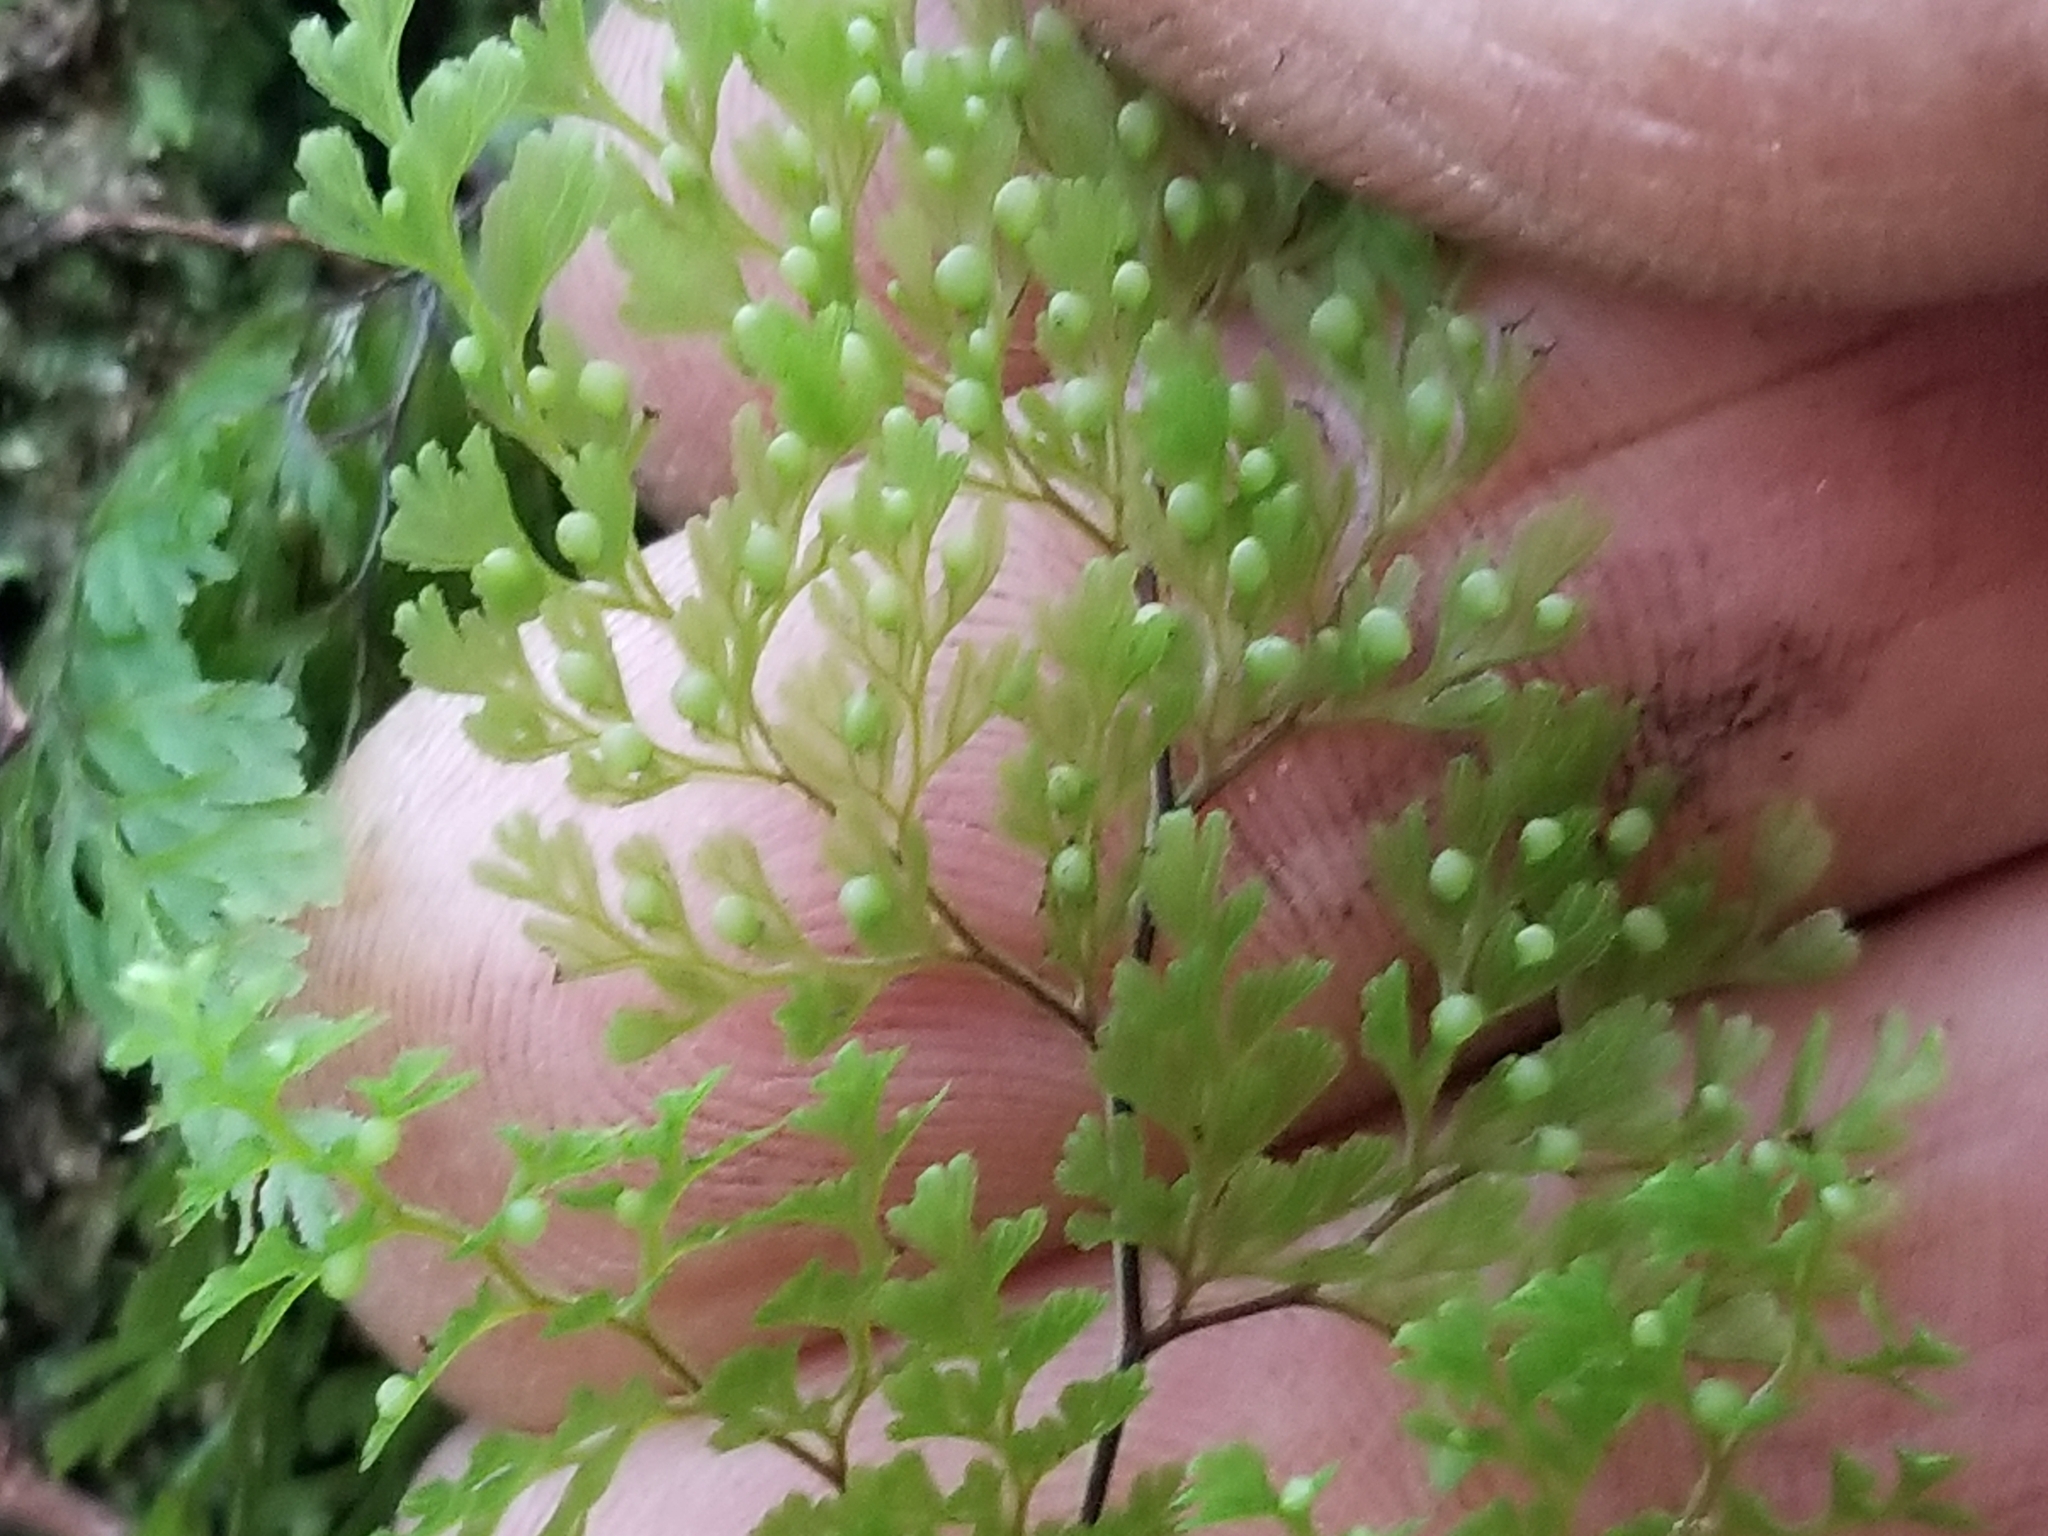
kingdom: Plantae
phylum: Tracheophyta
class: Polypodiopsida
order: Hymenophyllales
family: Hymenophyllaceae
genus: Hymenophyllum
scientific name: Hymenophyllum bivalve
